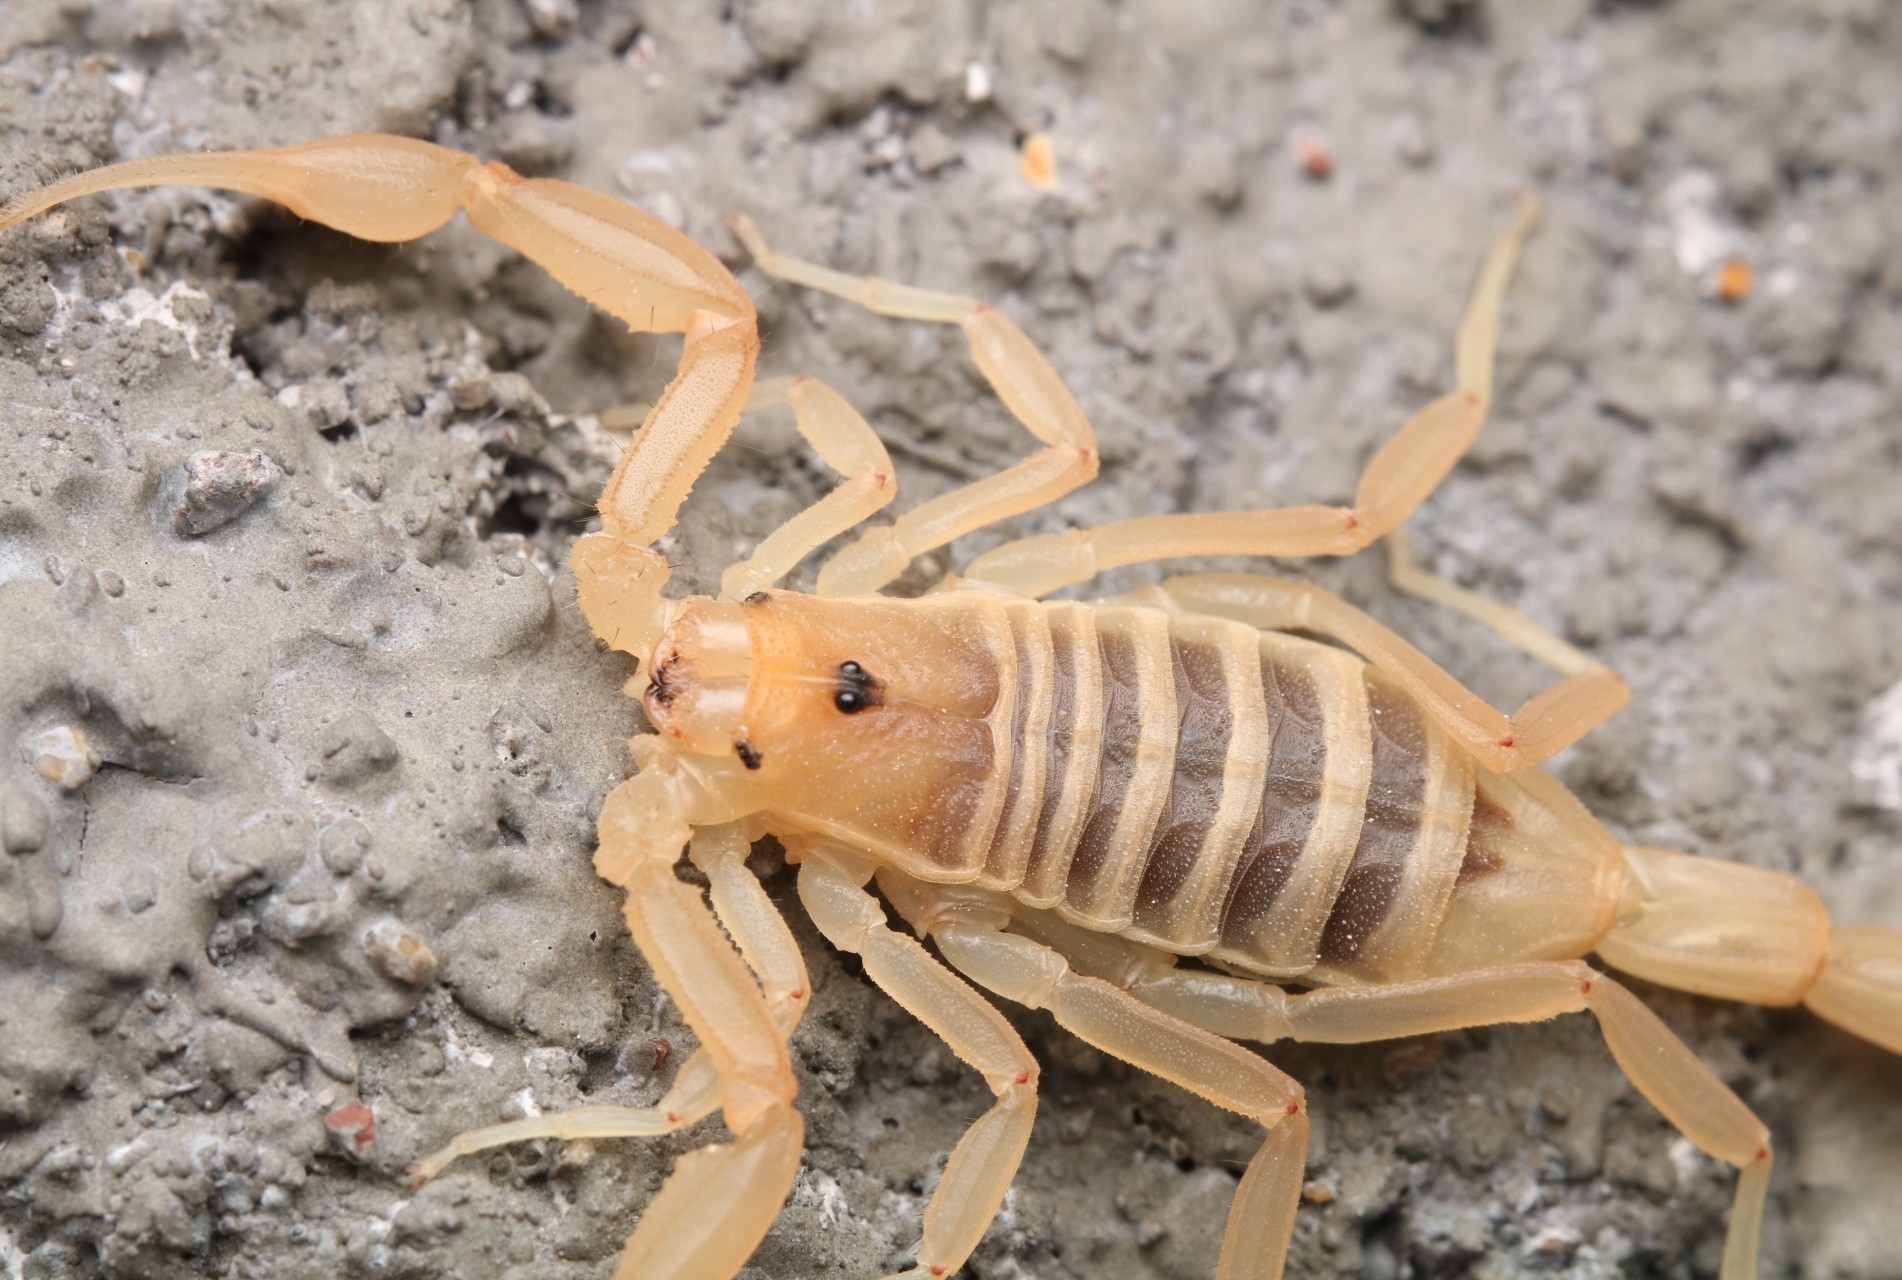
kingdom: Animalia
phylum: Arthropoda
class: Arachnida
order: Scorpiones
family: Buthidae
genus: Centruroides
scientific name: Centruroides vittatus
